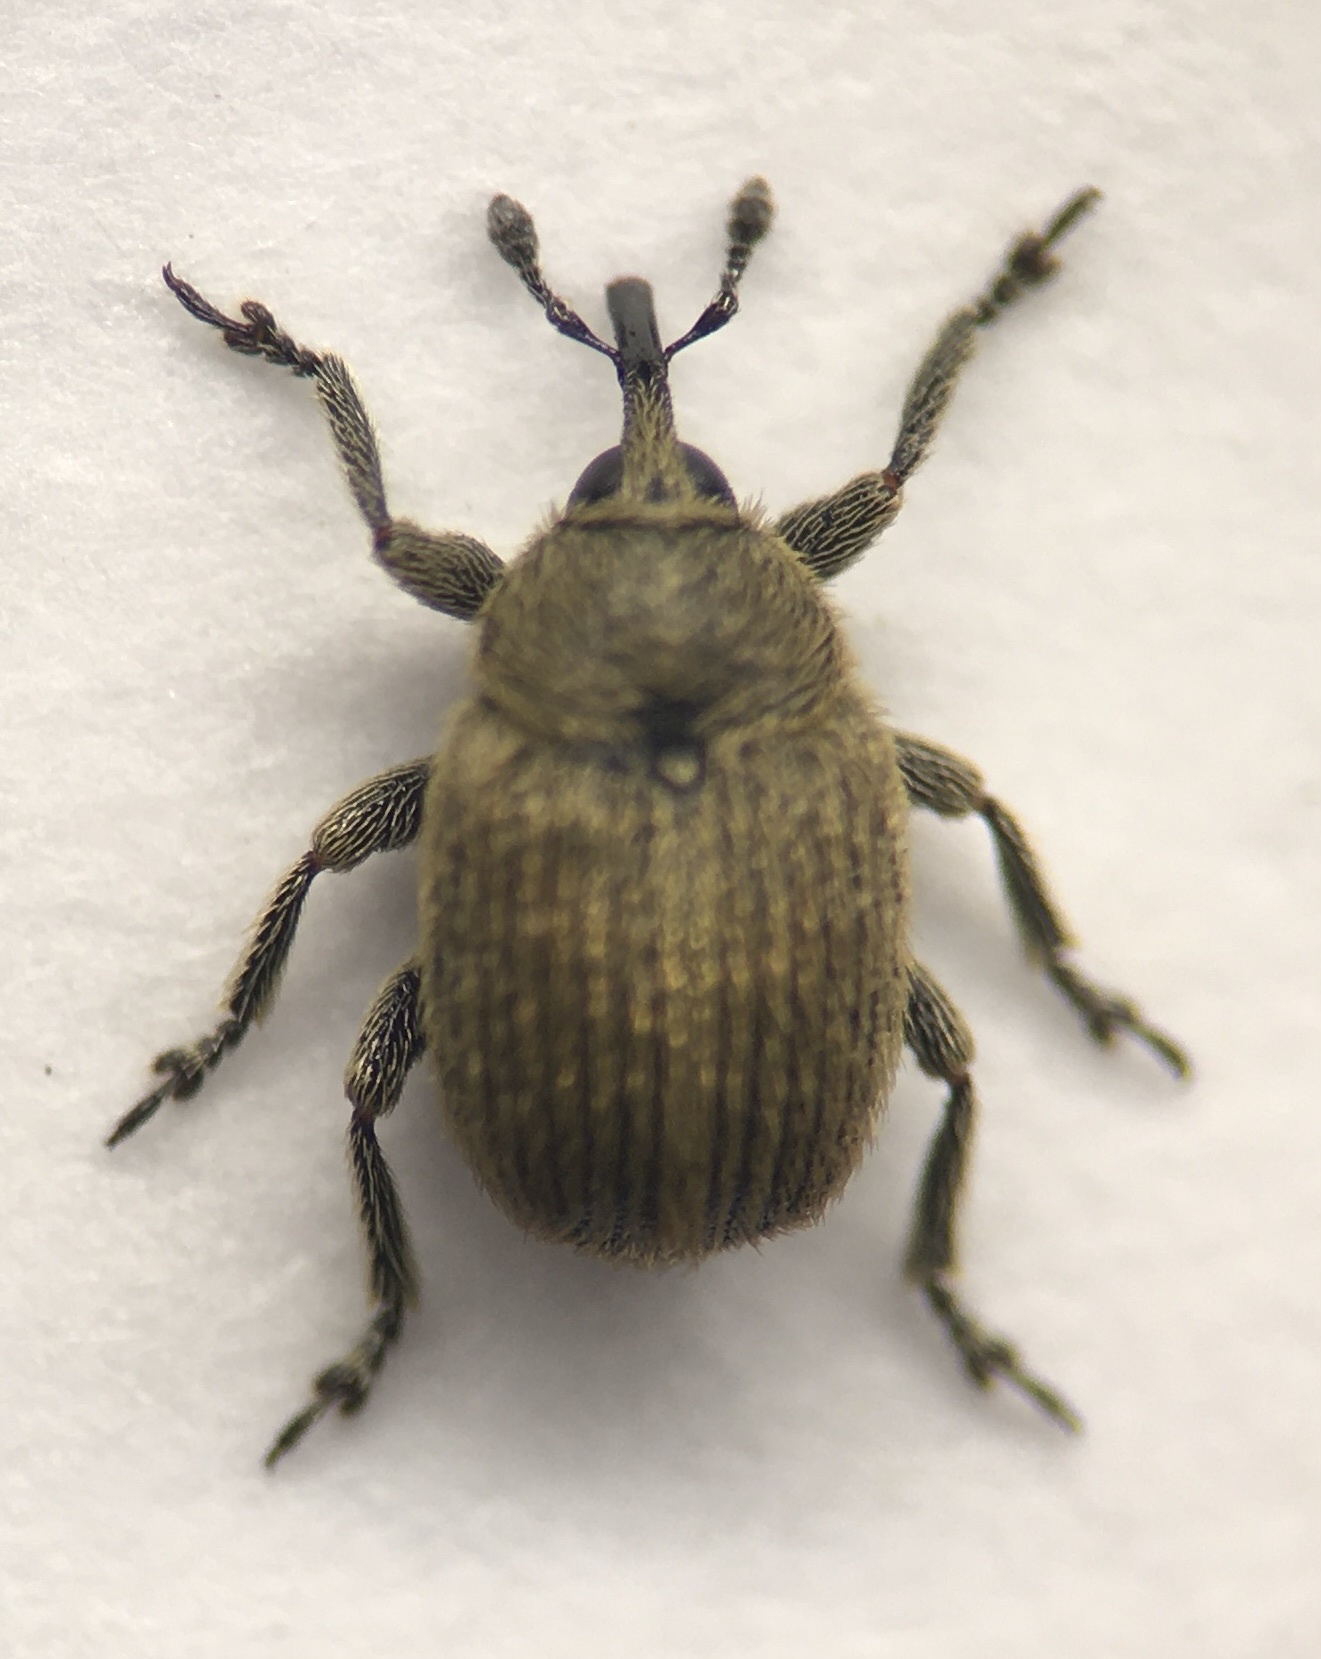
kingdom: Animalia
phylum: Arthropoda
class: Insecta
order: Coleoptera
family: Curculionidae
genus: Rhinusa
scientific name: Rhinusa neta
